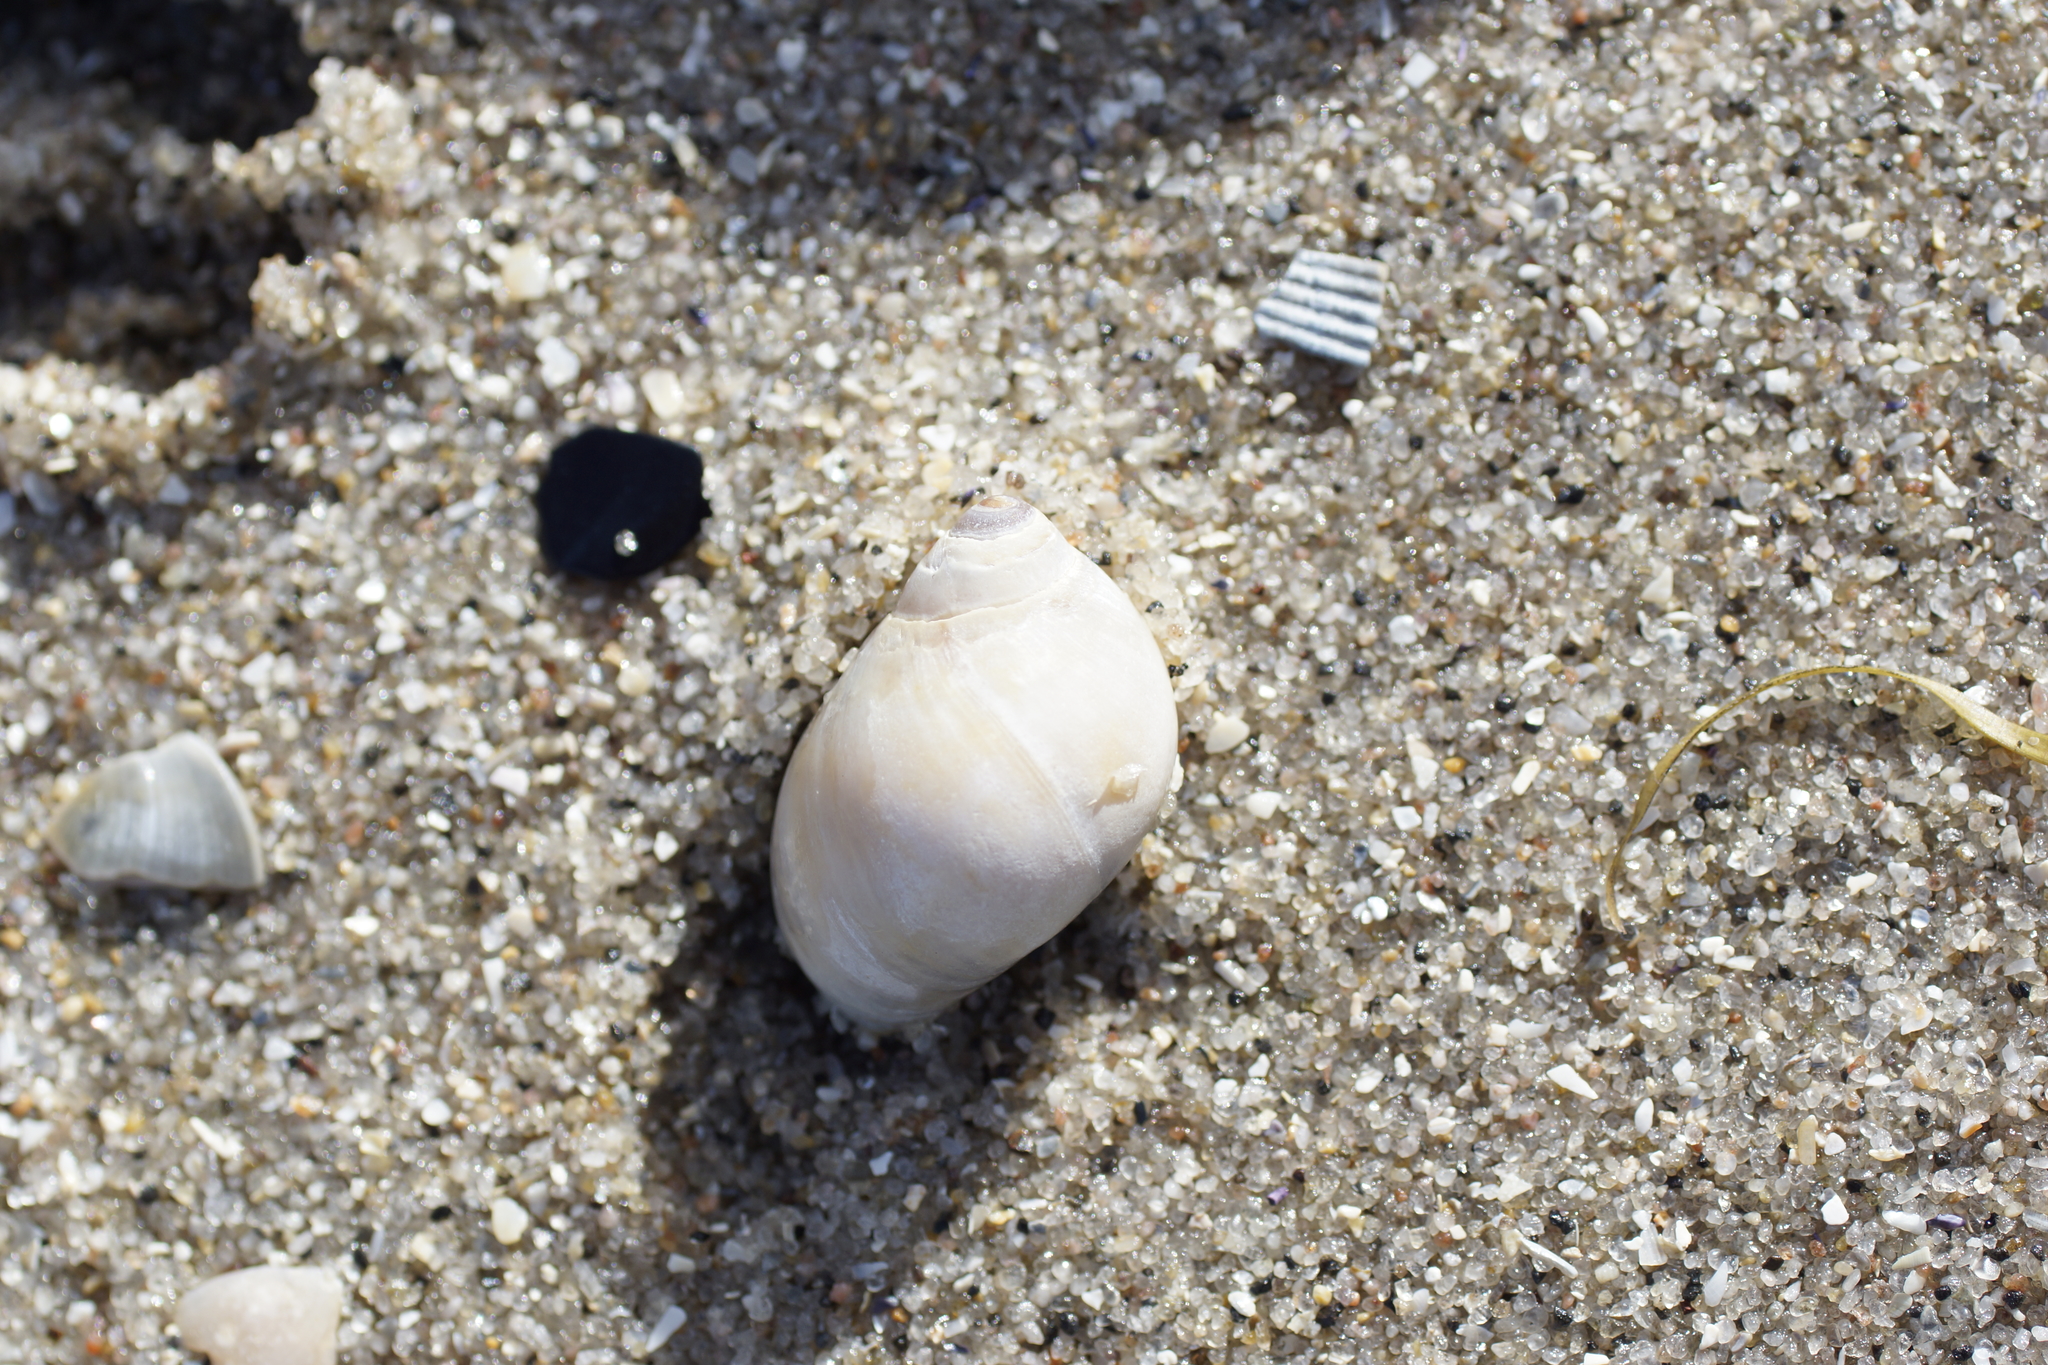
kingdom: Animalia
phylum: Mollusca
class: Gastropoda
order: Littorinimorpha
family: Naticidae
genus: Conuber
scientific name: Conuber conicum
